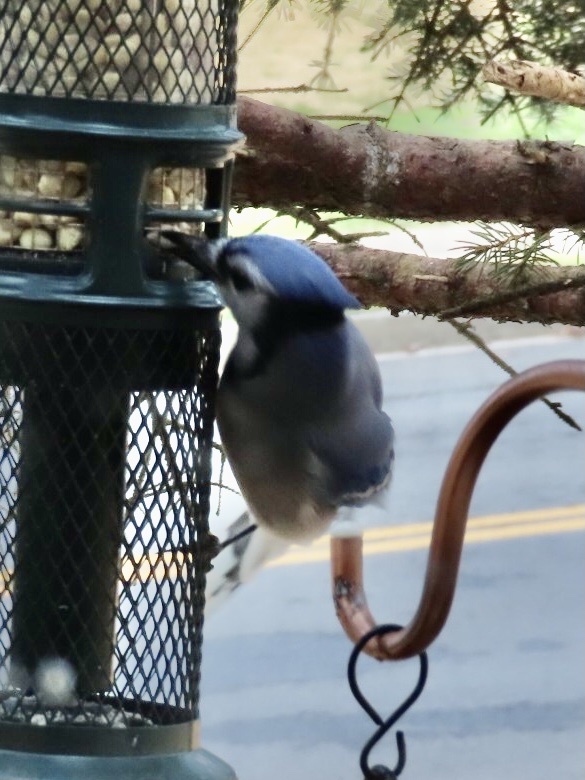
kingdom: Animalia
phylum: Chordata
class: Aves
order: Passeriformes
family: Corvidae
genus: Cyanocitta
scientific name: Cyanocitta cristata
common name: Blue jay
